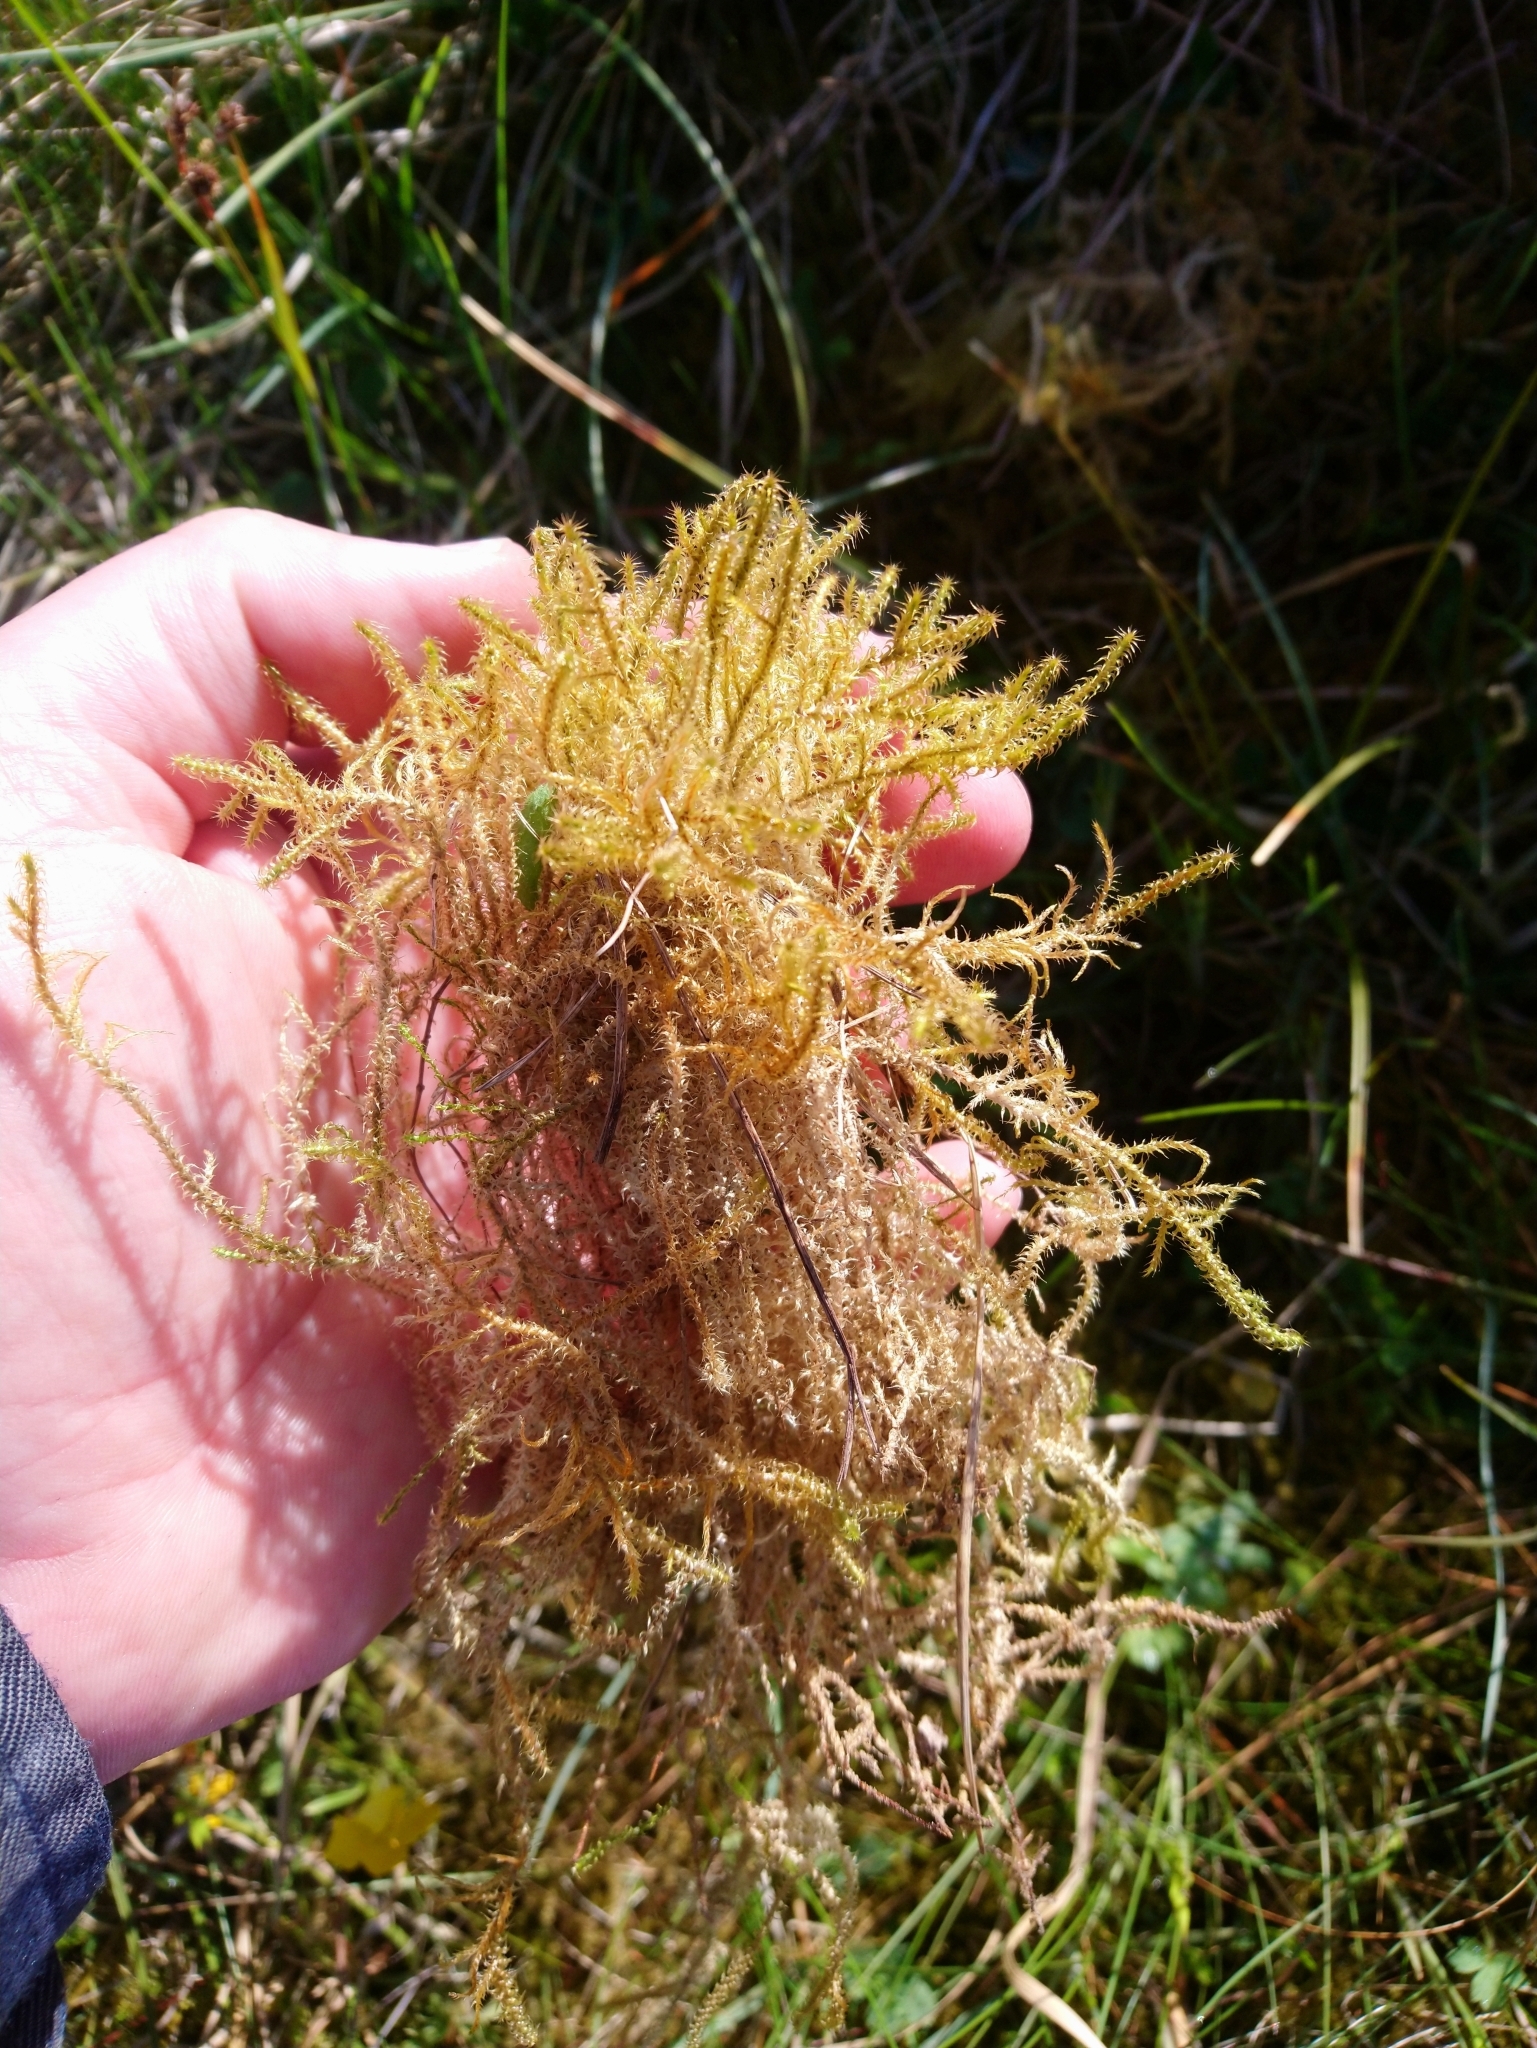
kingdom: Plantae
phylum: Bryophyta
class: Bryopsida
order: Hypnales
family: Hylocomiaceae
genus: Rhytidiadelphus
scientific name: Rhytidiadelphus squarrosus
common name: Springy turf-moss
